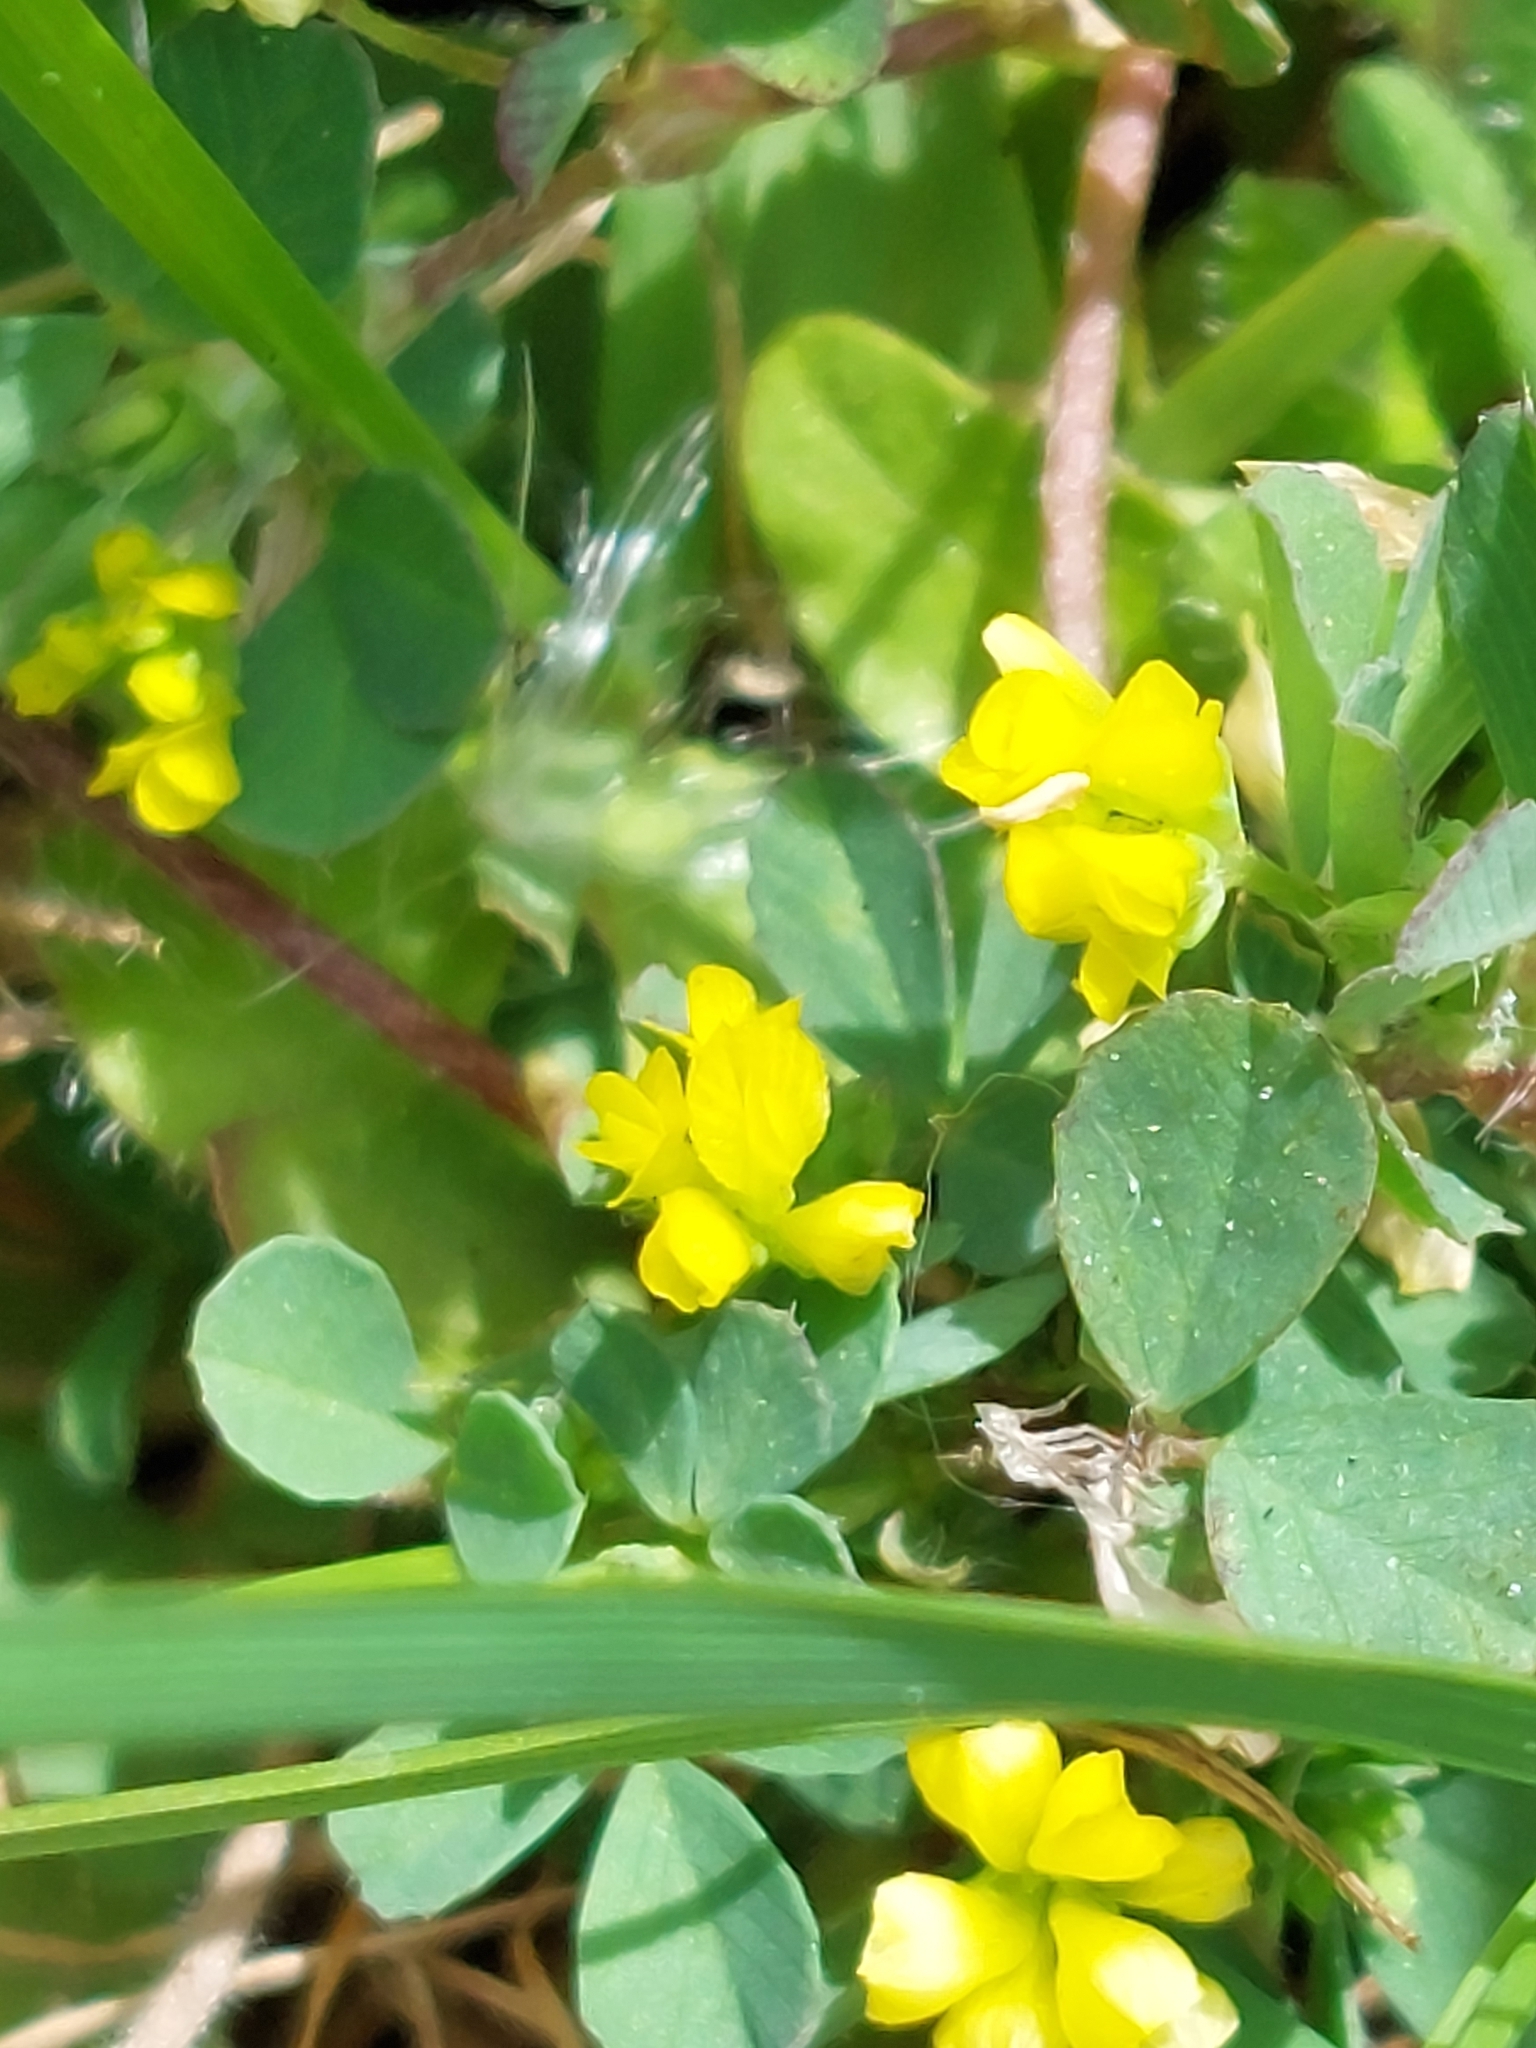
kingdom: Plantae
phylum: Tracheophyta
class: Magnoliopsida
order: Fabales
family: Fabaceae
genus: Trifolium
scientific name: Trifolium dubium
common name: Suckling clover
